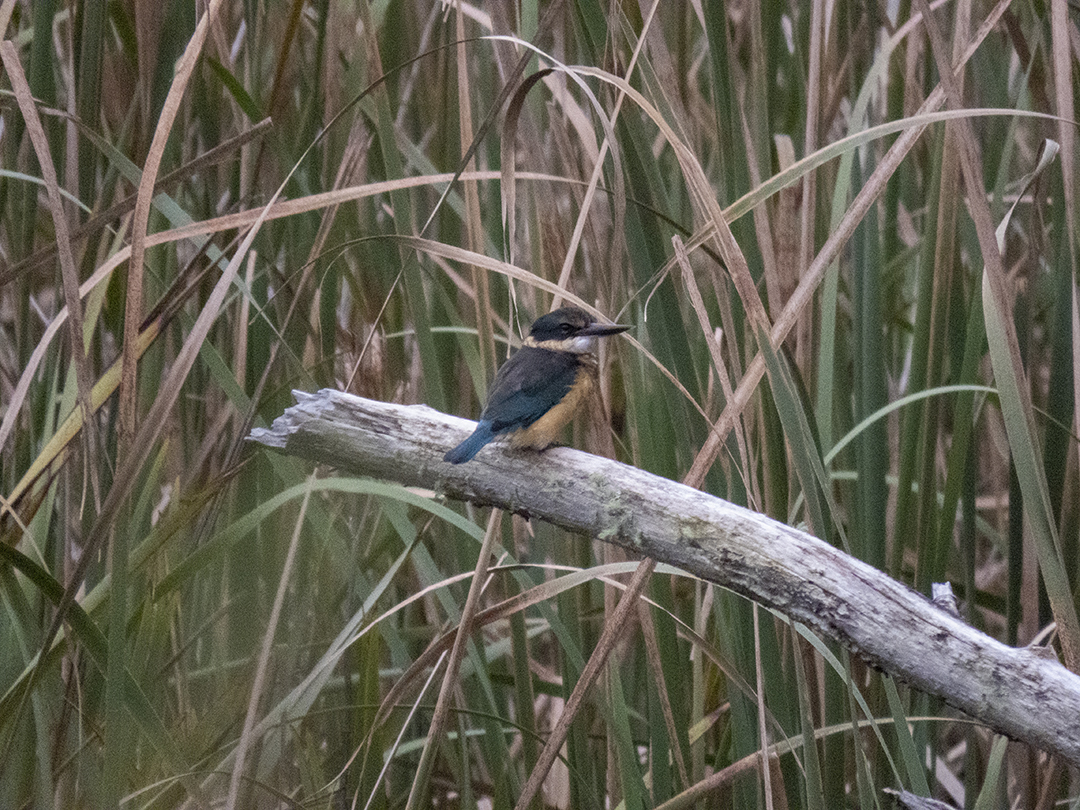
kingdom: Animalia
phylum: Chordata
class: Aves
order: Coraciiformes
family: Alcedinidae
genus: Todiramphus
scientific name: Todiramphus sanctus
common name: Sacred kingfisher
